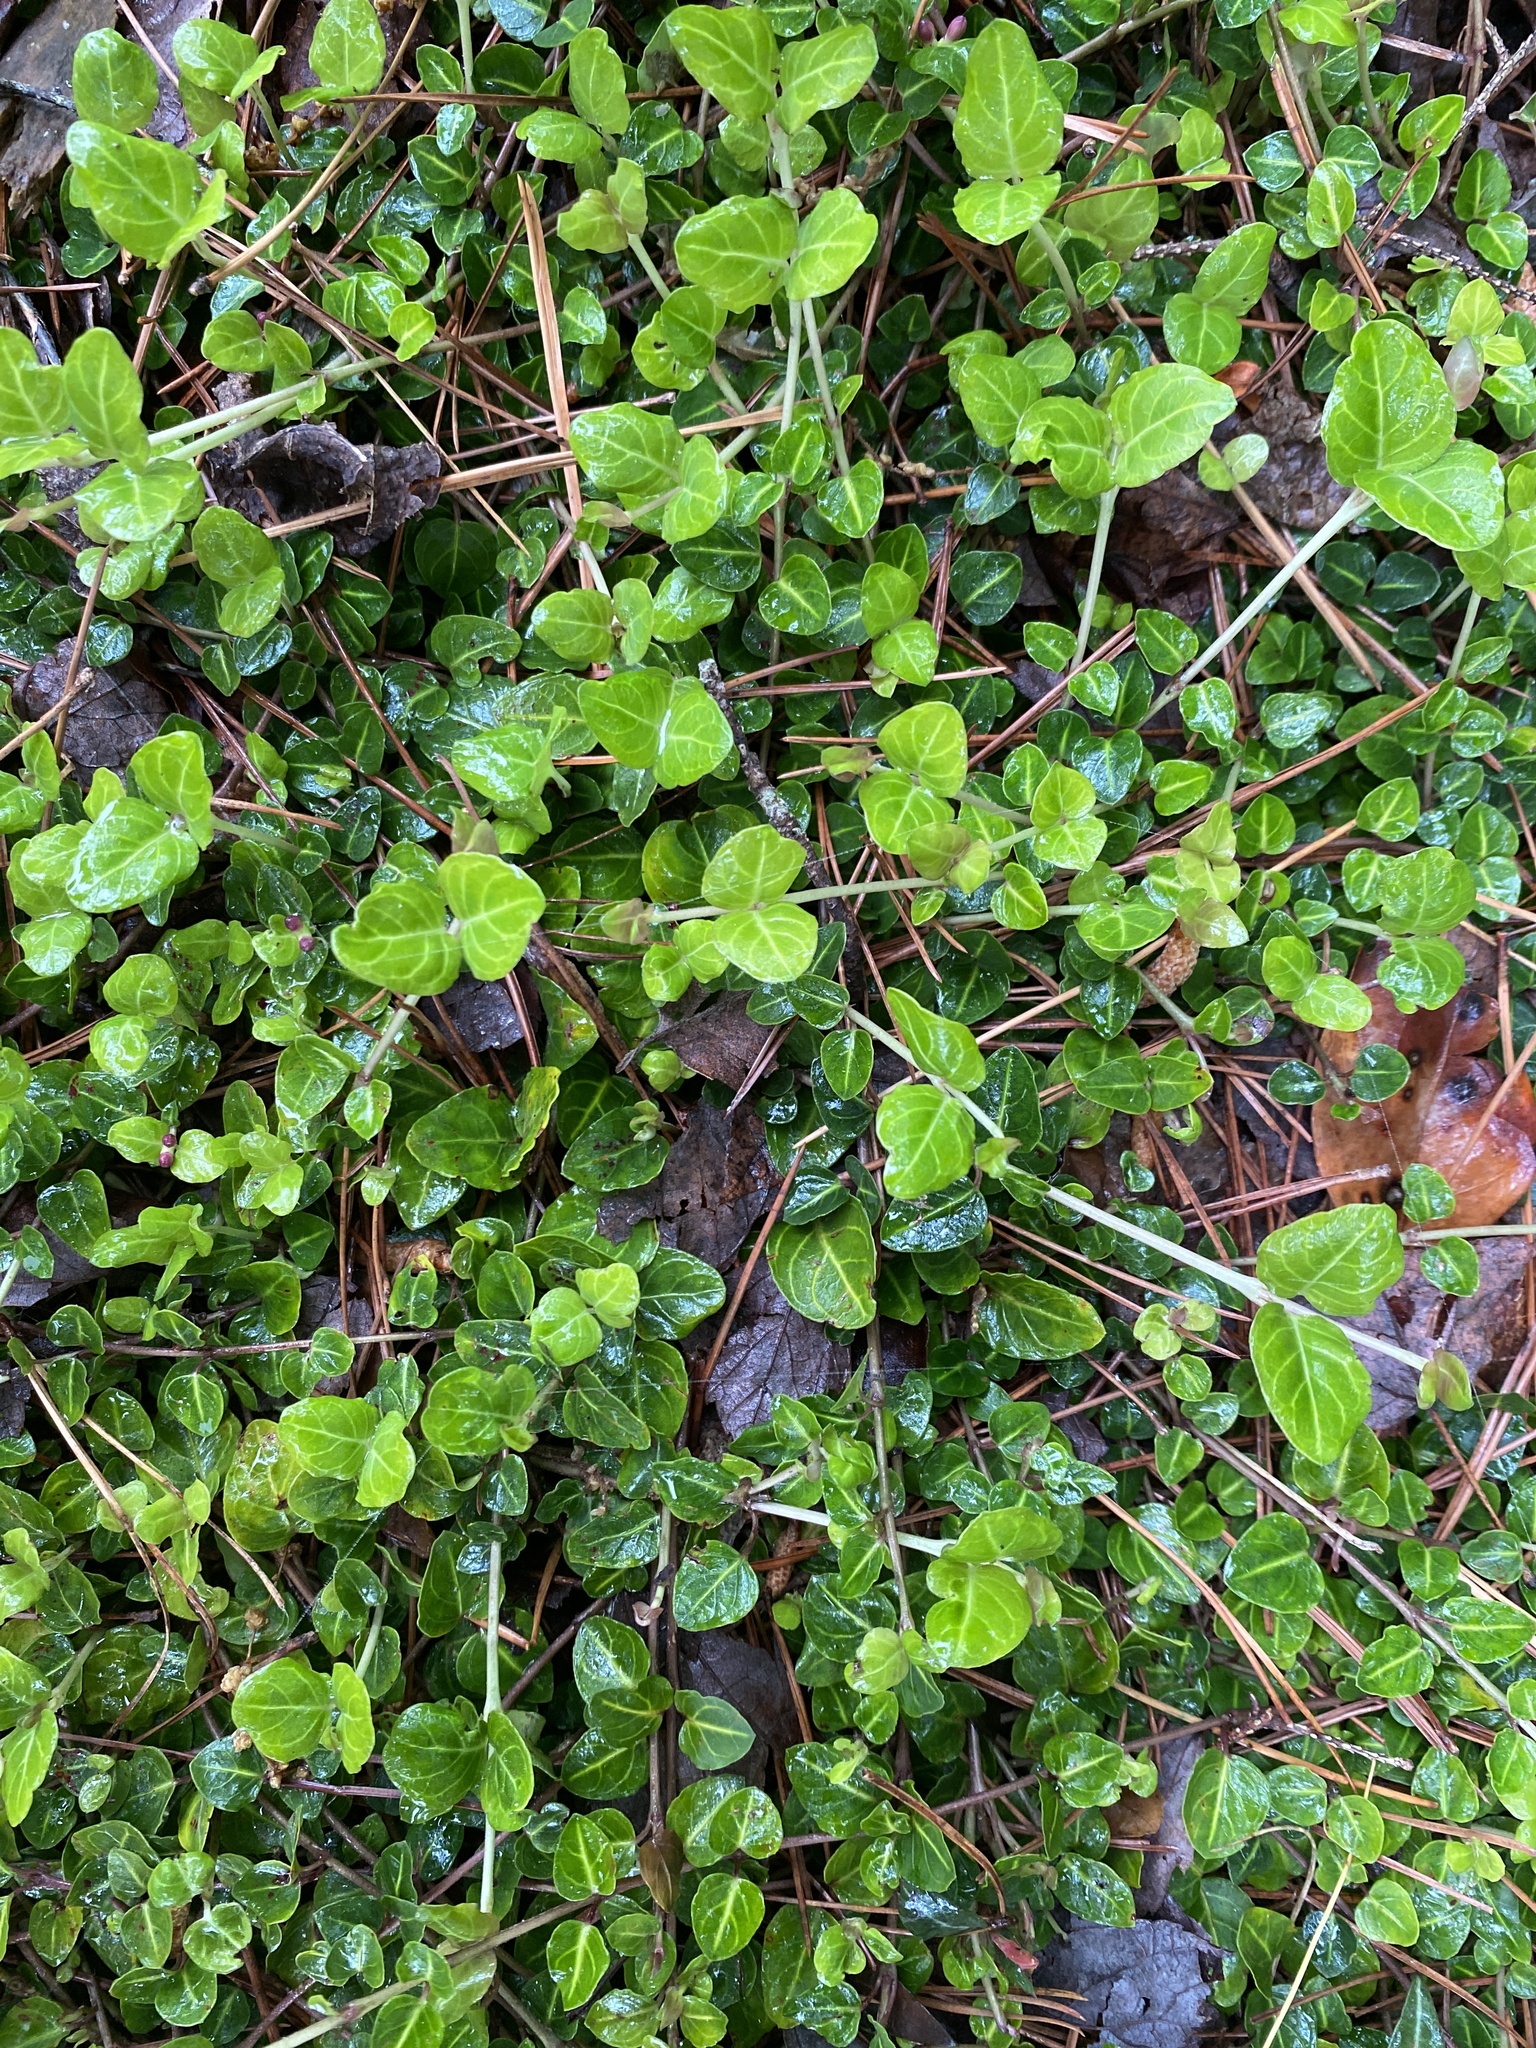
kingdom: Plantae
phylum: Tracheophyta
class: Magnoliopsida
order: Gentianales
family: Rubiaceae
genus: Mitchella
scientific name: Mitchella repens
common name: Partridge-berry
